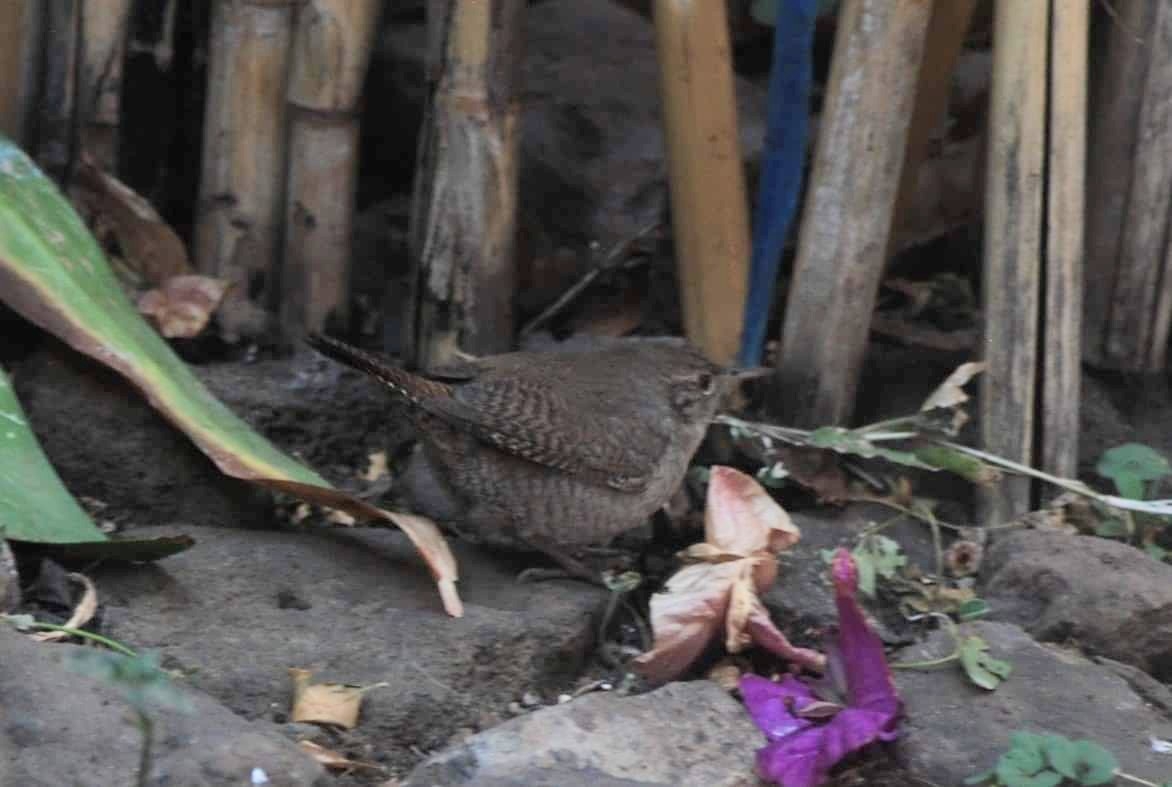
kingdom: Animalia
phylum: Chordata
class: Aves
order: Passeriformes
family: Troglodytidae
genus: Troglodytes
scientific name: Troglodytes aedon
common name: House wren
